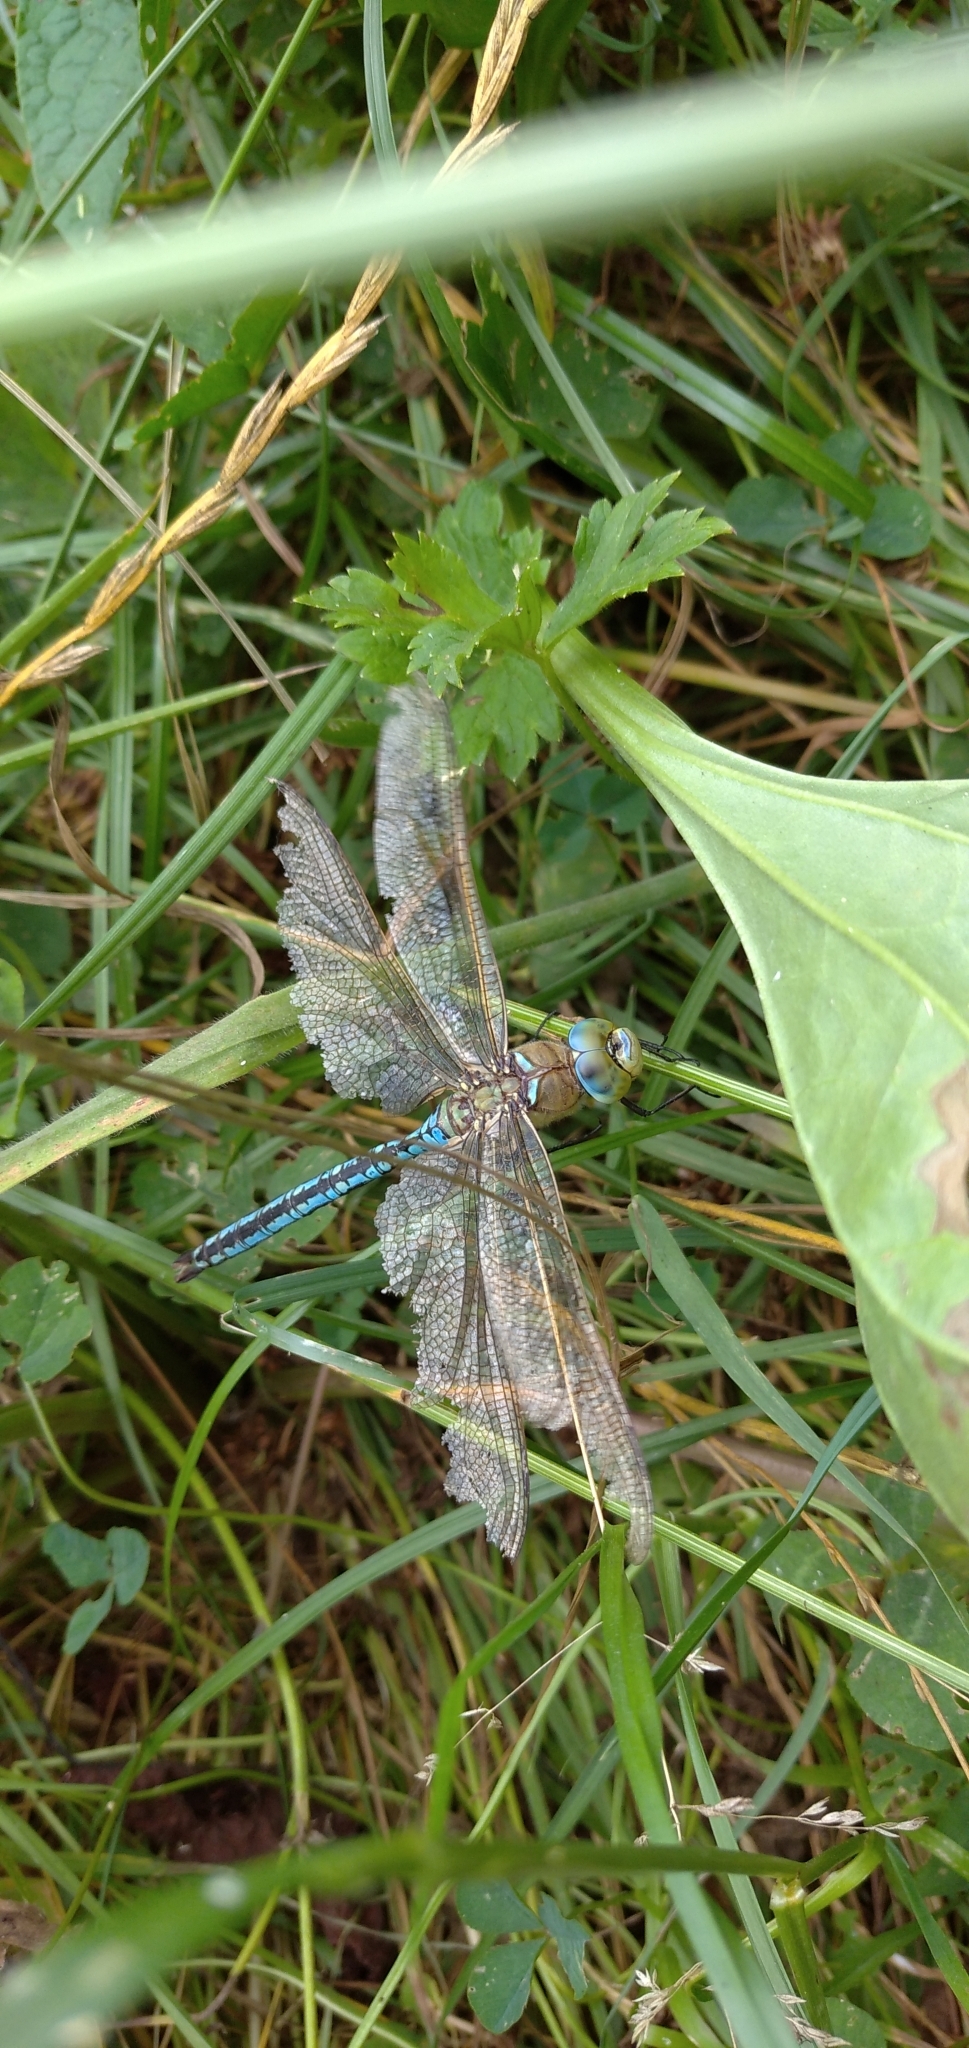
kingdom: Animalia
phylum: Arthropoda
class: Insecta
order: Odonata
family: Aeshnidae
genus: Anax
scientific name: Anax imperator
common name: Emperor dragonfly
